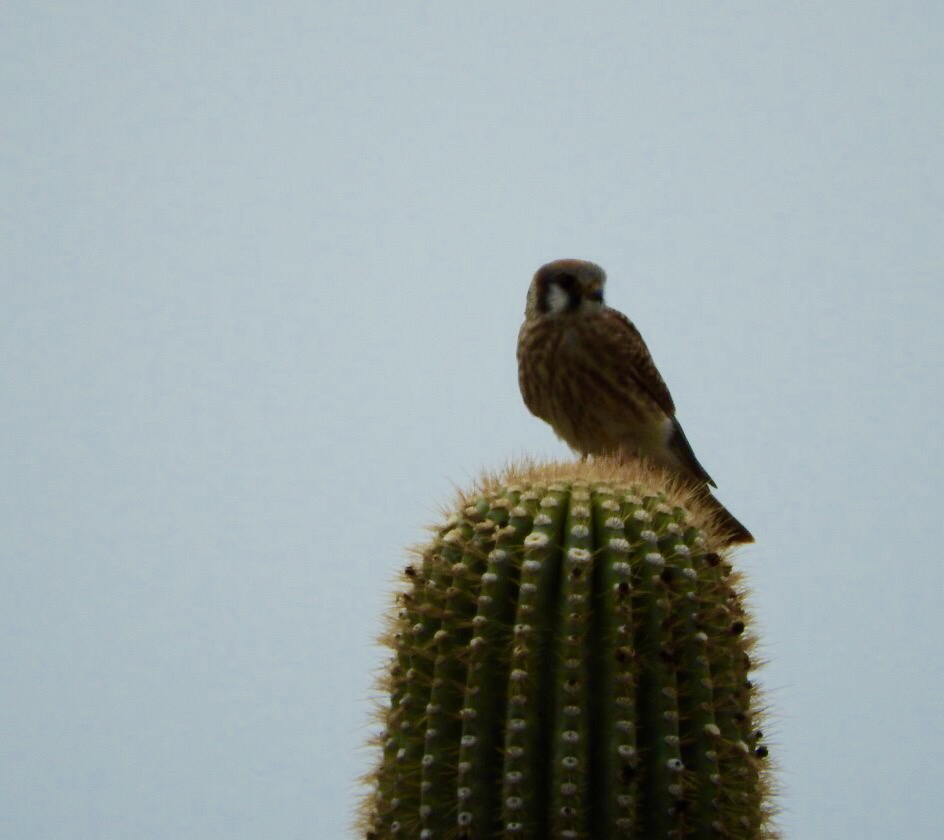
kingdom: Animalia
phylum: Chordata
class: Aves
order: Falconiformes
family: Falconidae
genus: Falco
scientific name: Falco sparverius
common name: American kestrel
